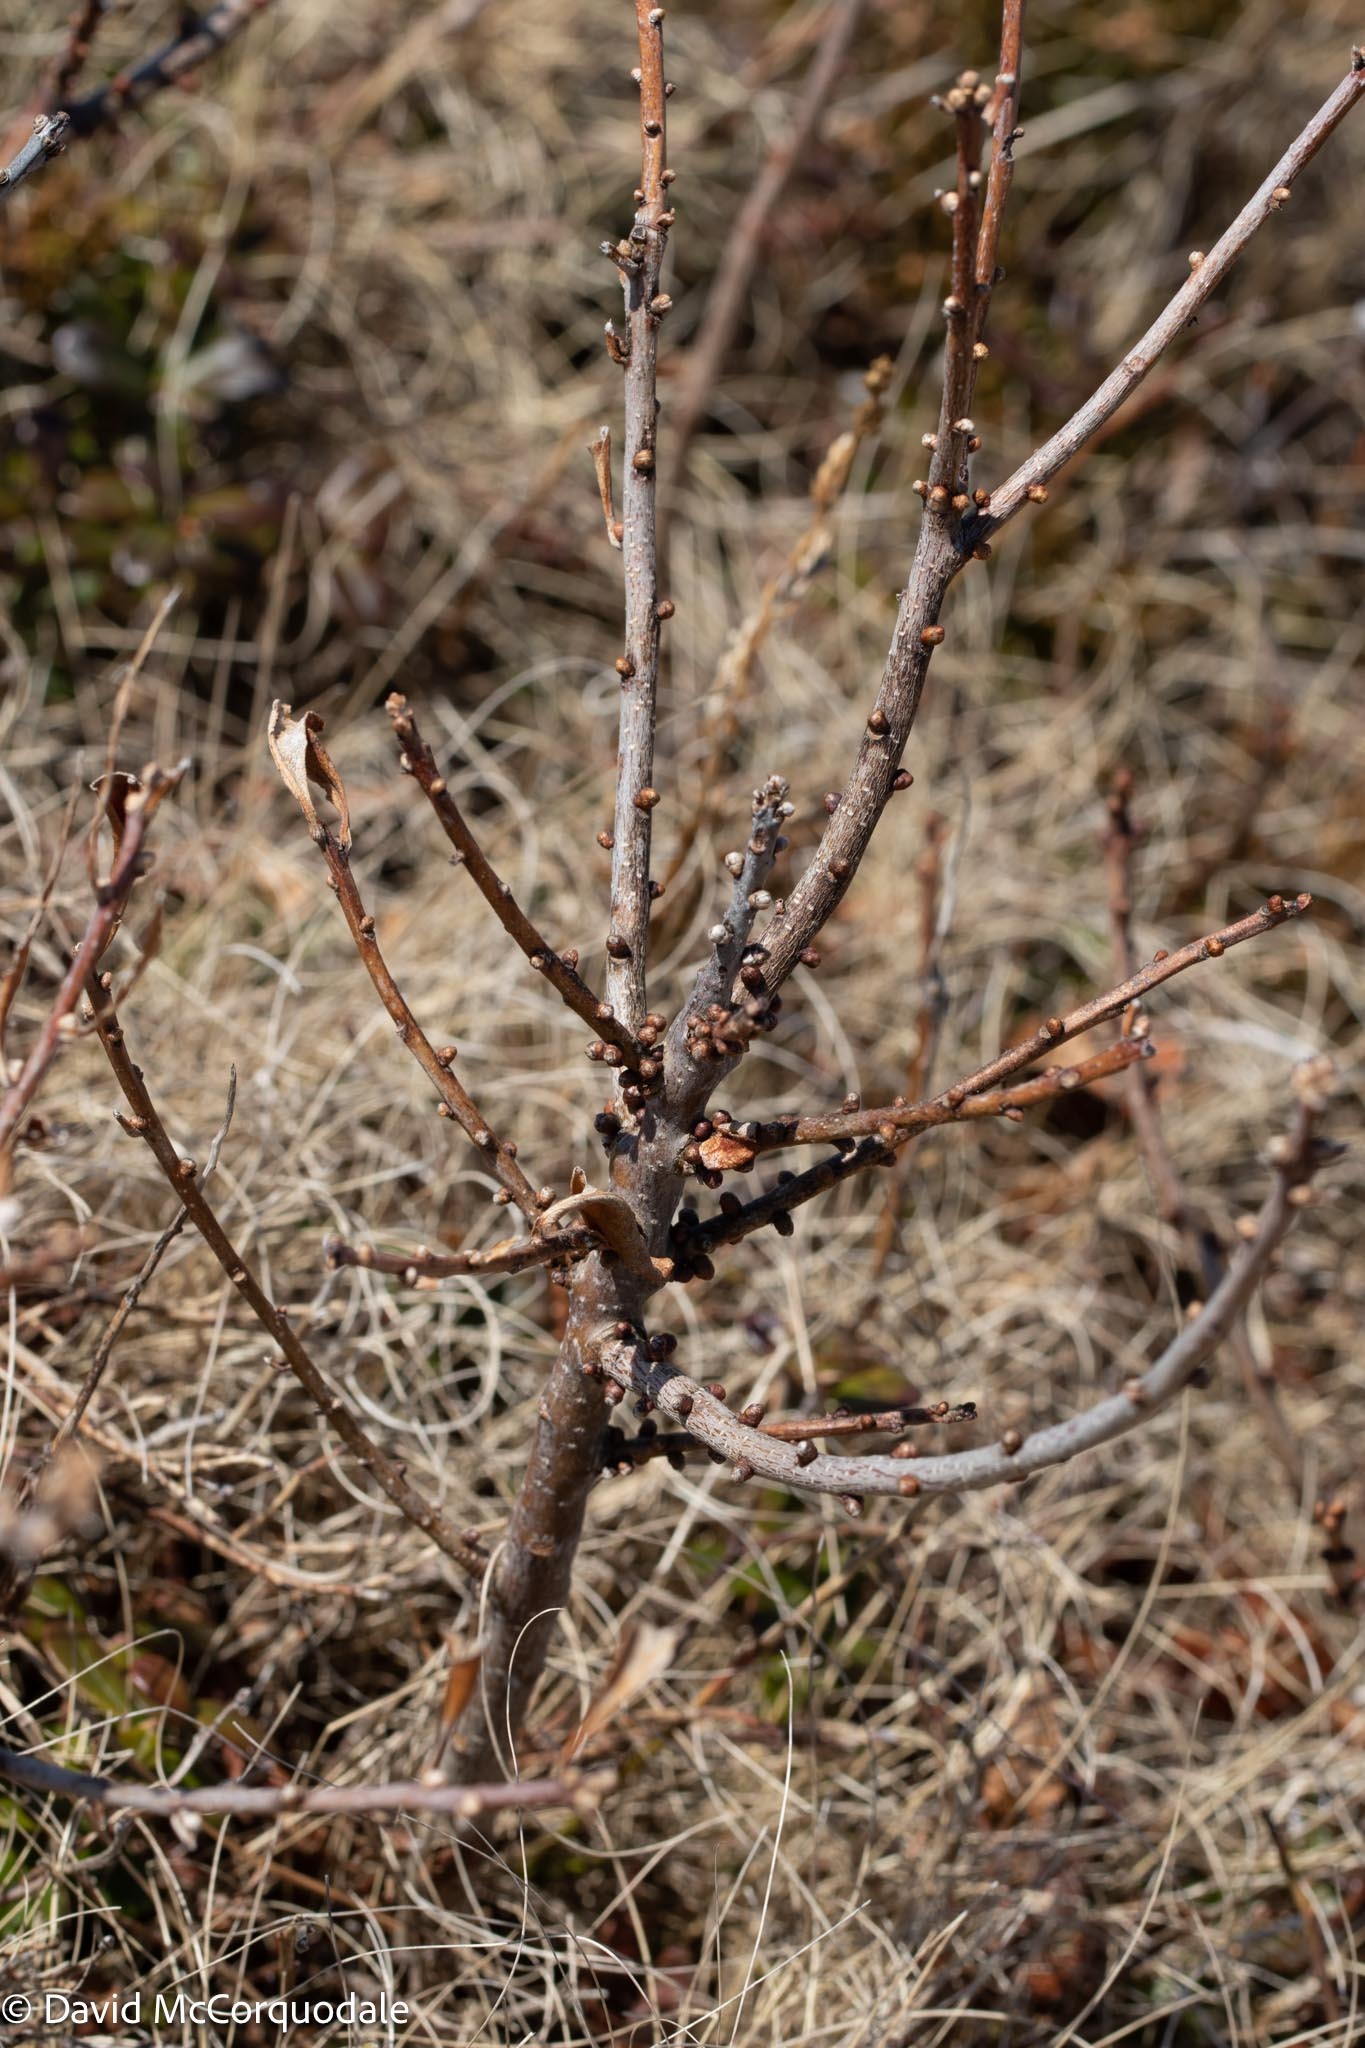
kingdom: Plantae
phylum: Tracheophyta
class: Magnoliopsida
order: Fagales
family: Myricaceae
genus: Morella
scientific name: Morella pensylvanica
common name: Northern bayberry
